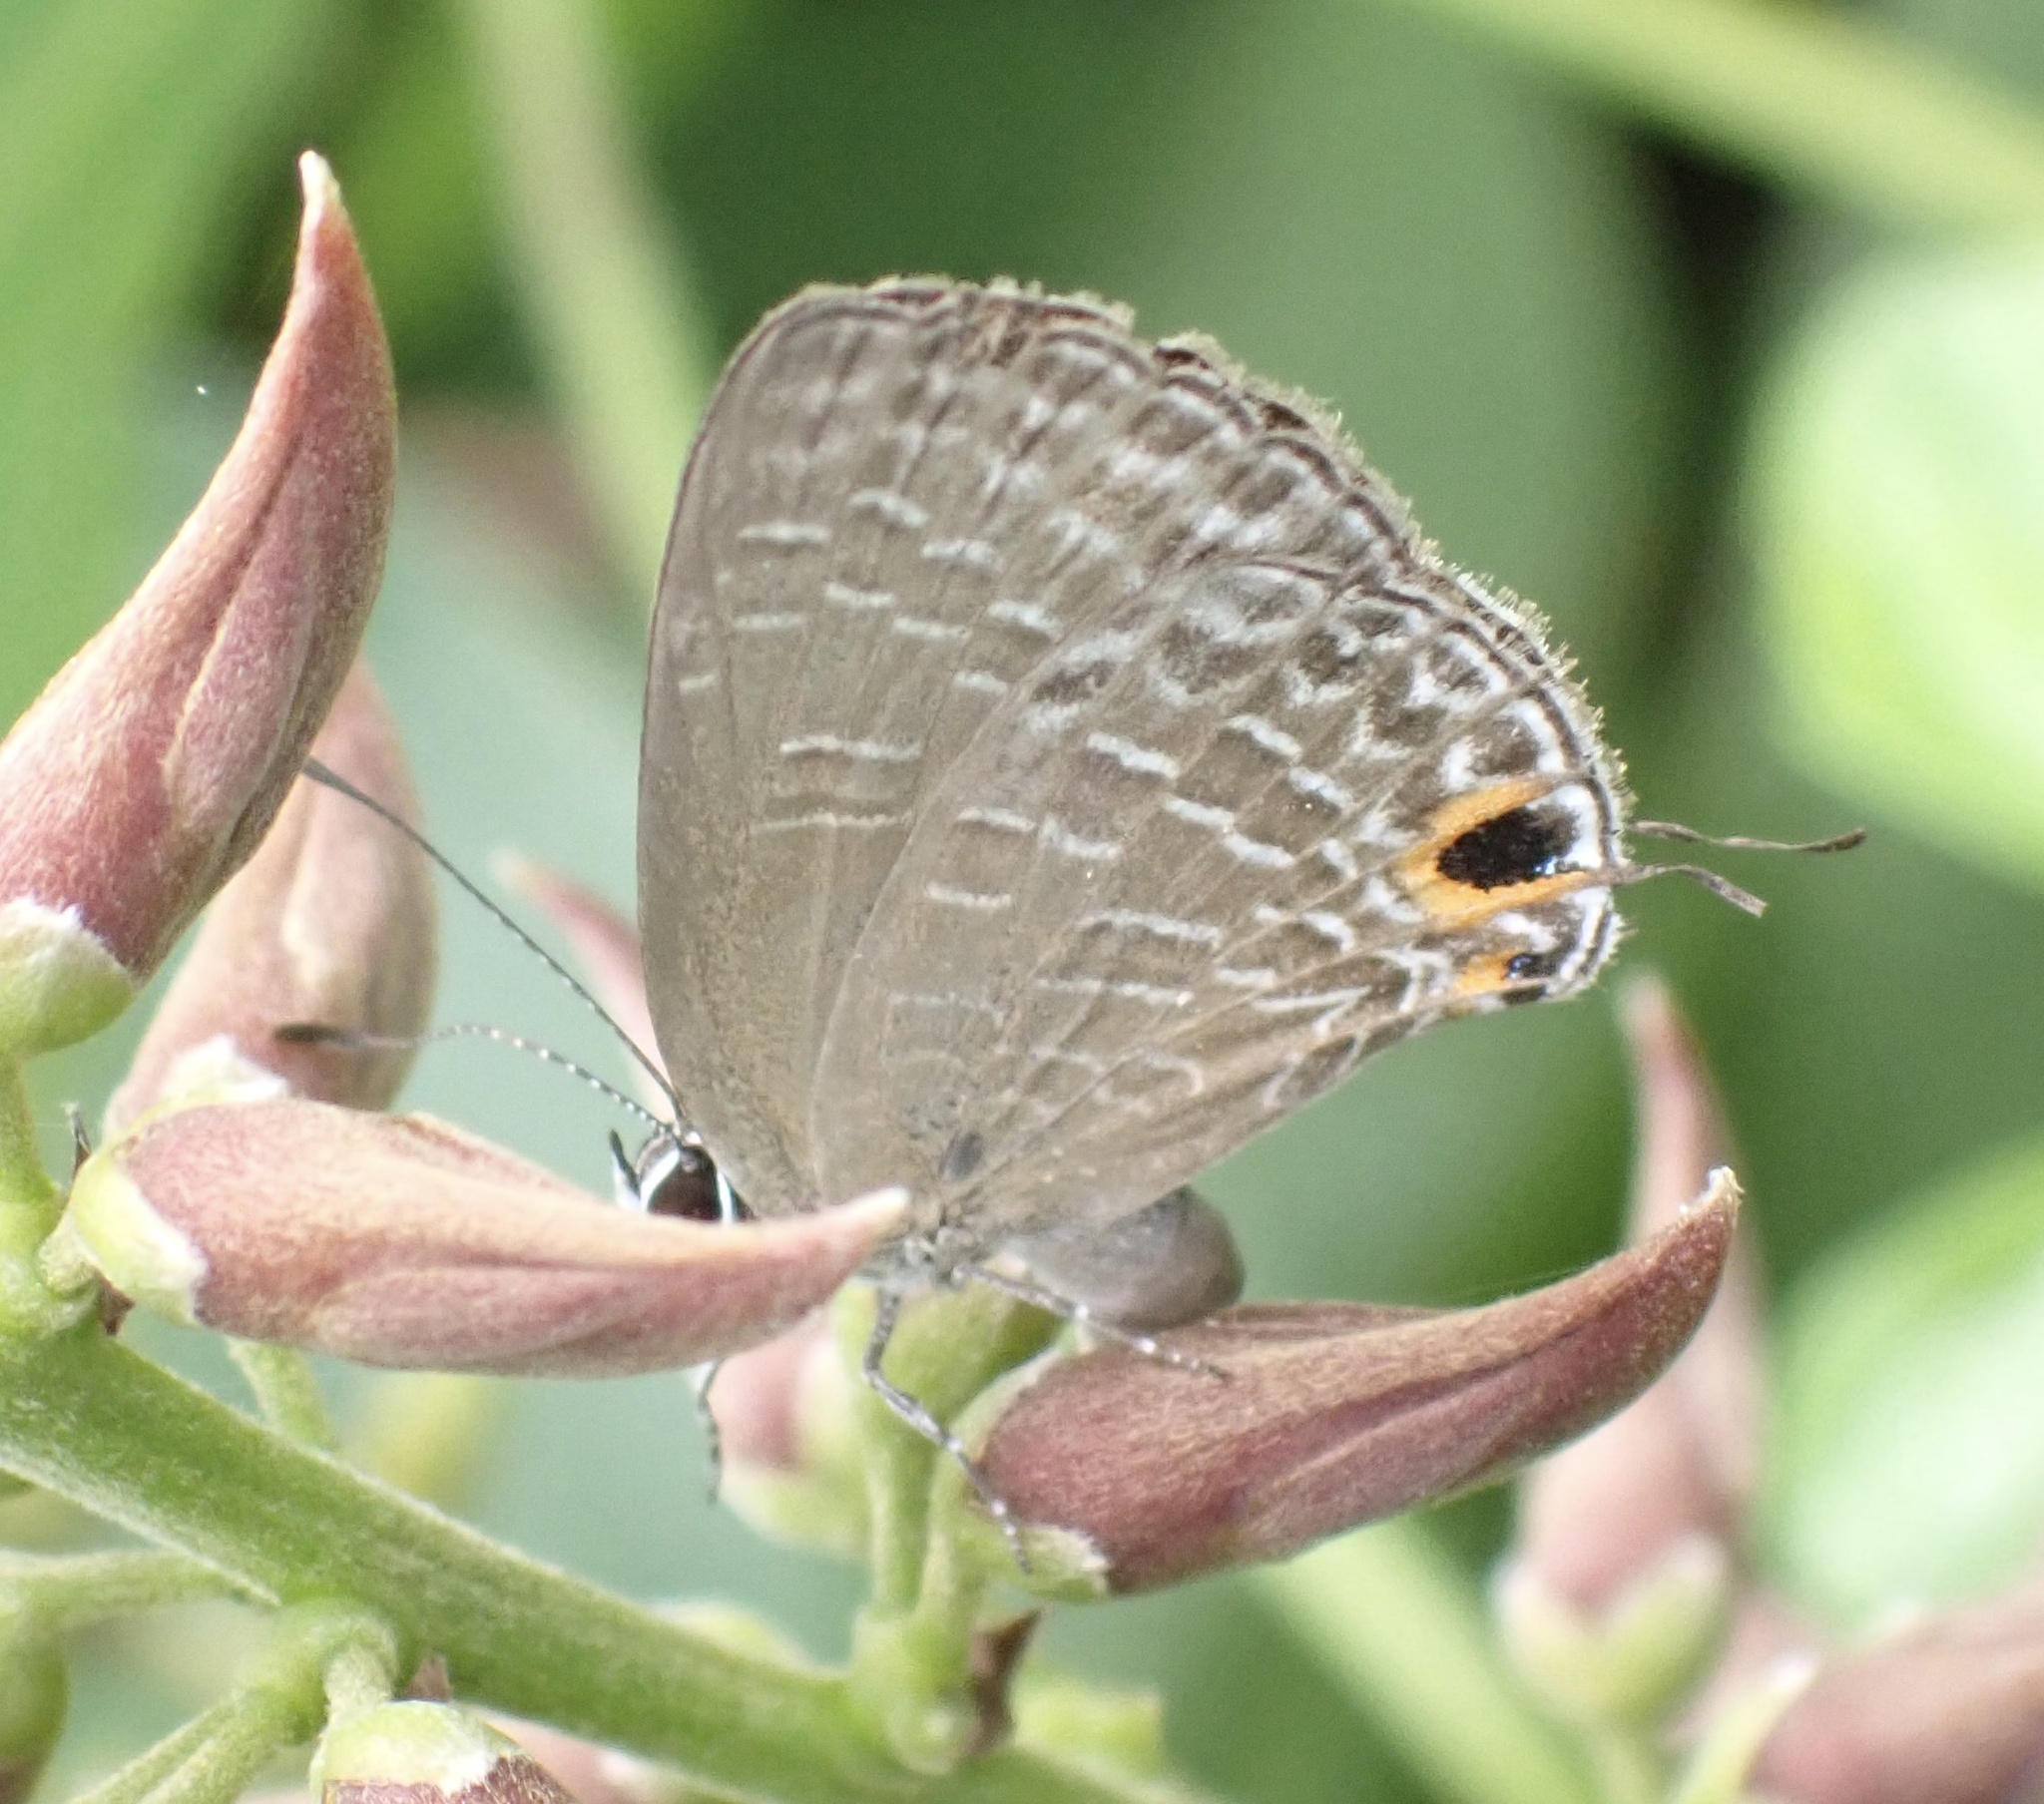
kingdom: Animalia
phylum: Arthropoda
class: Insecta
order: Lepidoptera
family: Lycaenidae
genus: Jamides
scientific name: Jamides bochus
